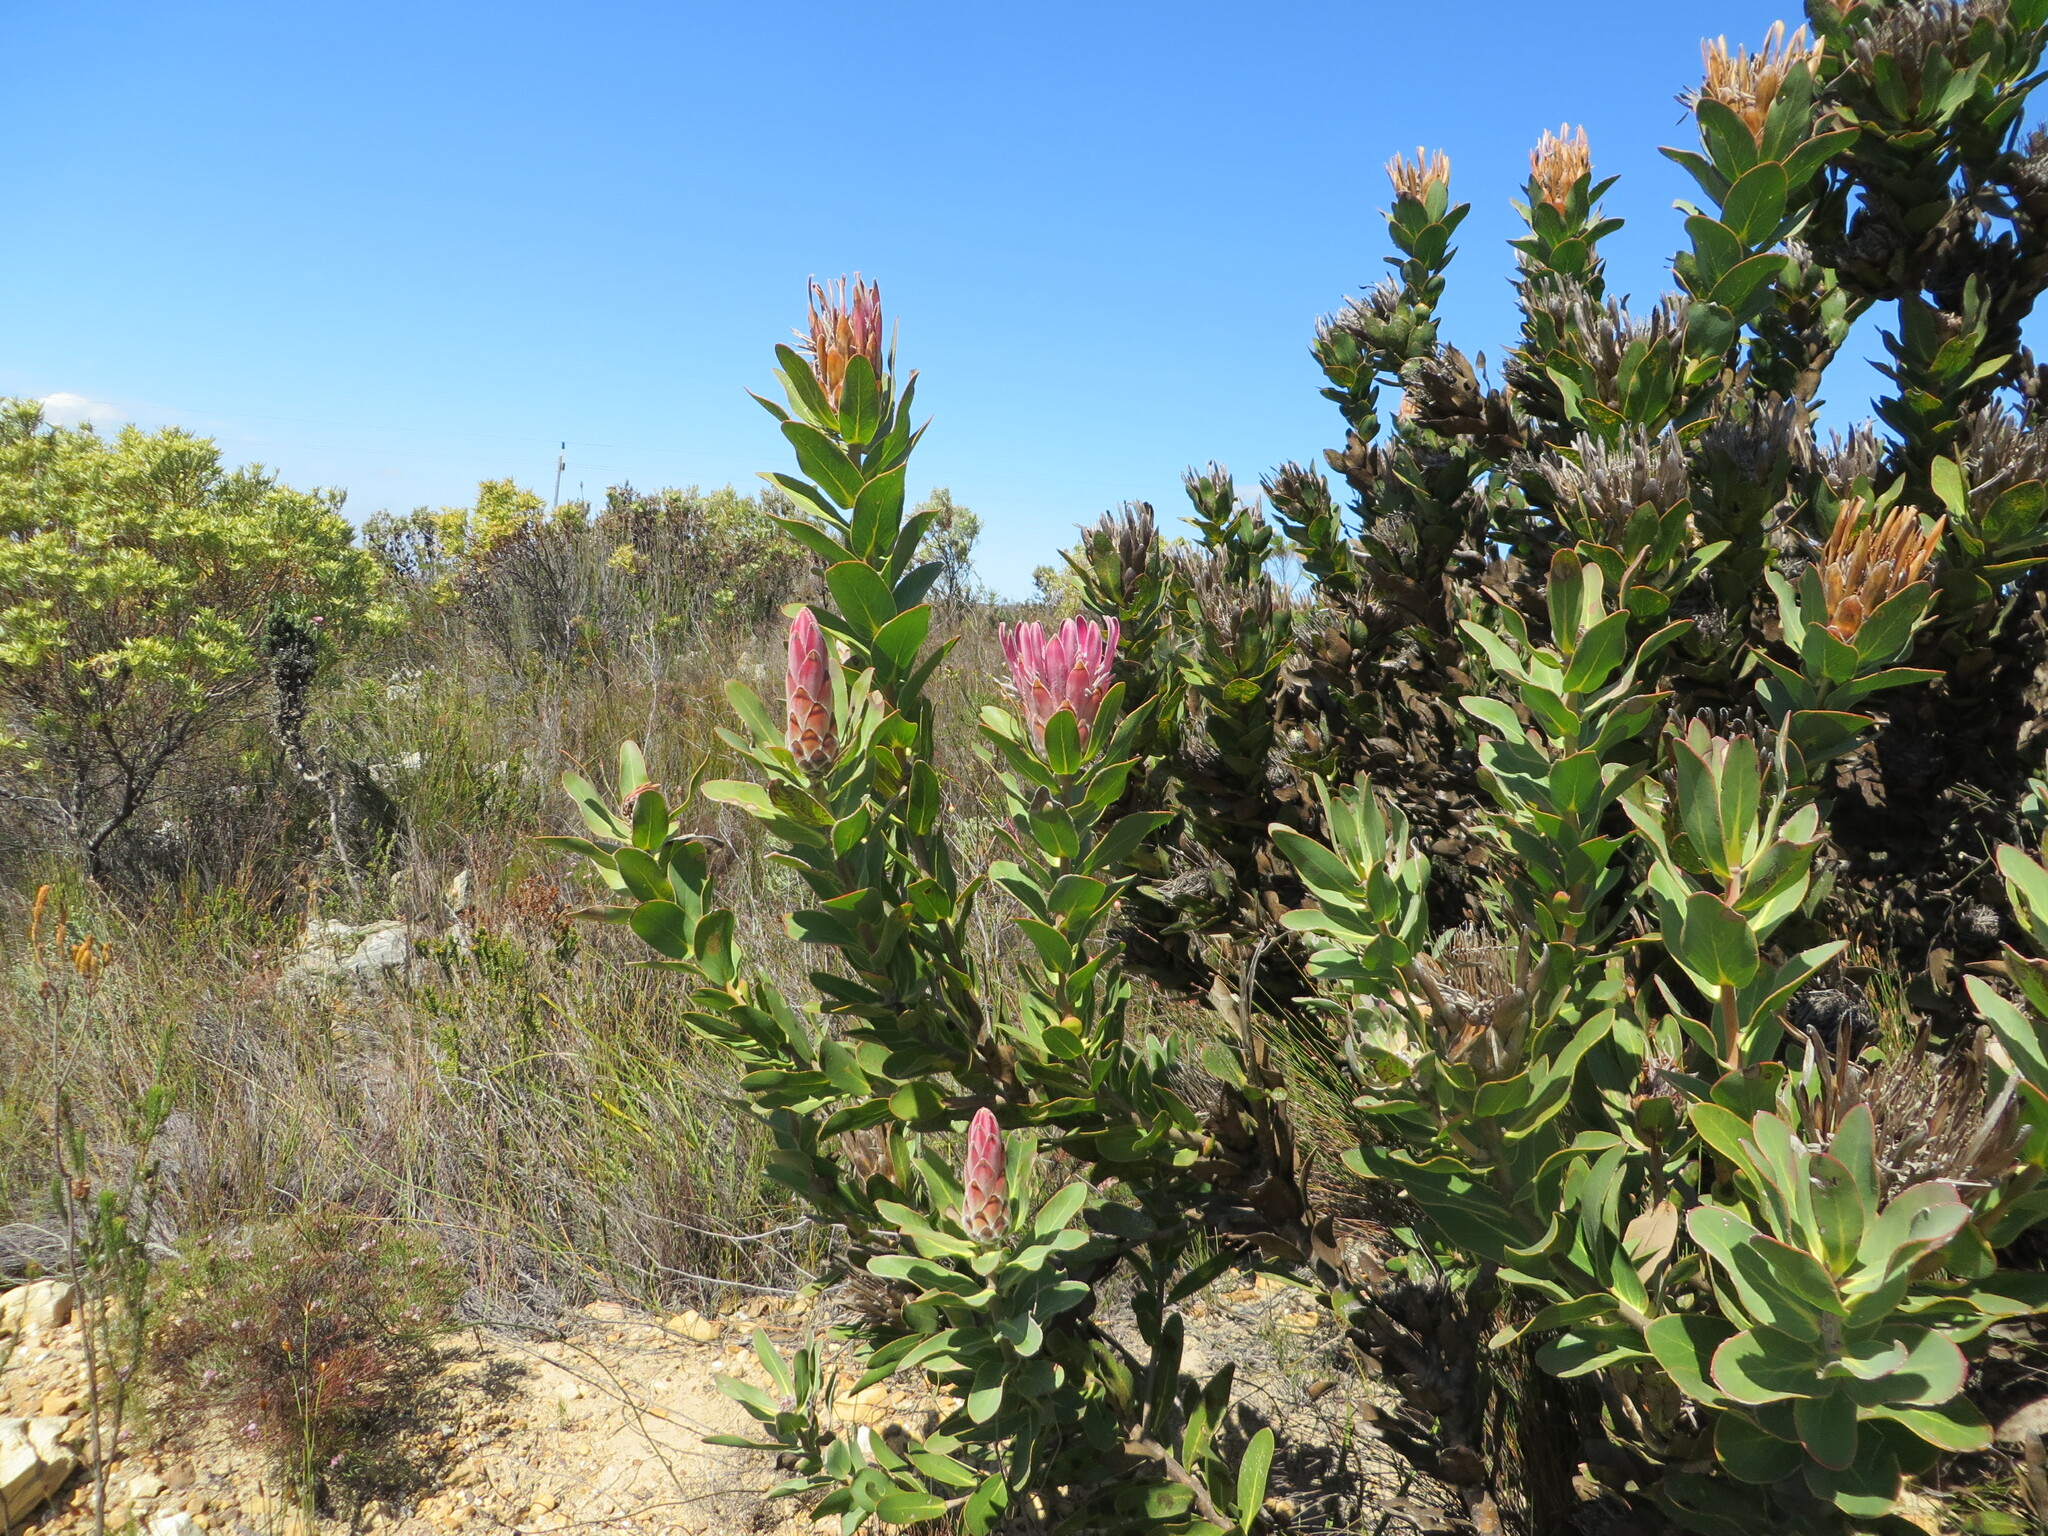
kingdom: Plantae
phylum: Tracheophyta
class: Magnoliopsida
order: Proteales
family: Proteaceae
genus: Protea
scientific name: Protea compacta
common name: Bot river protea
